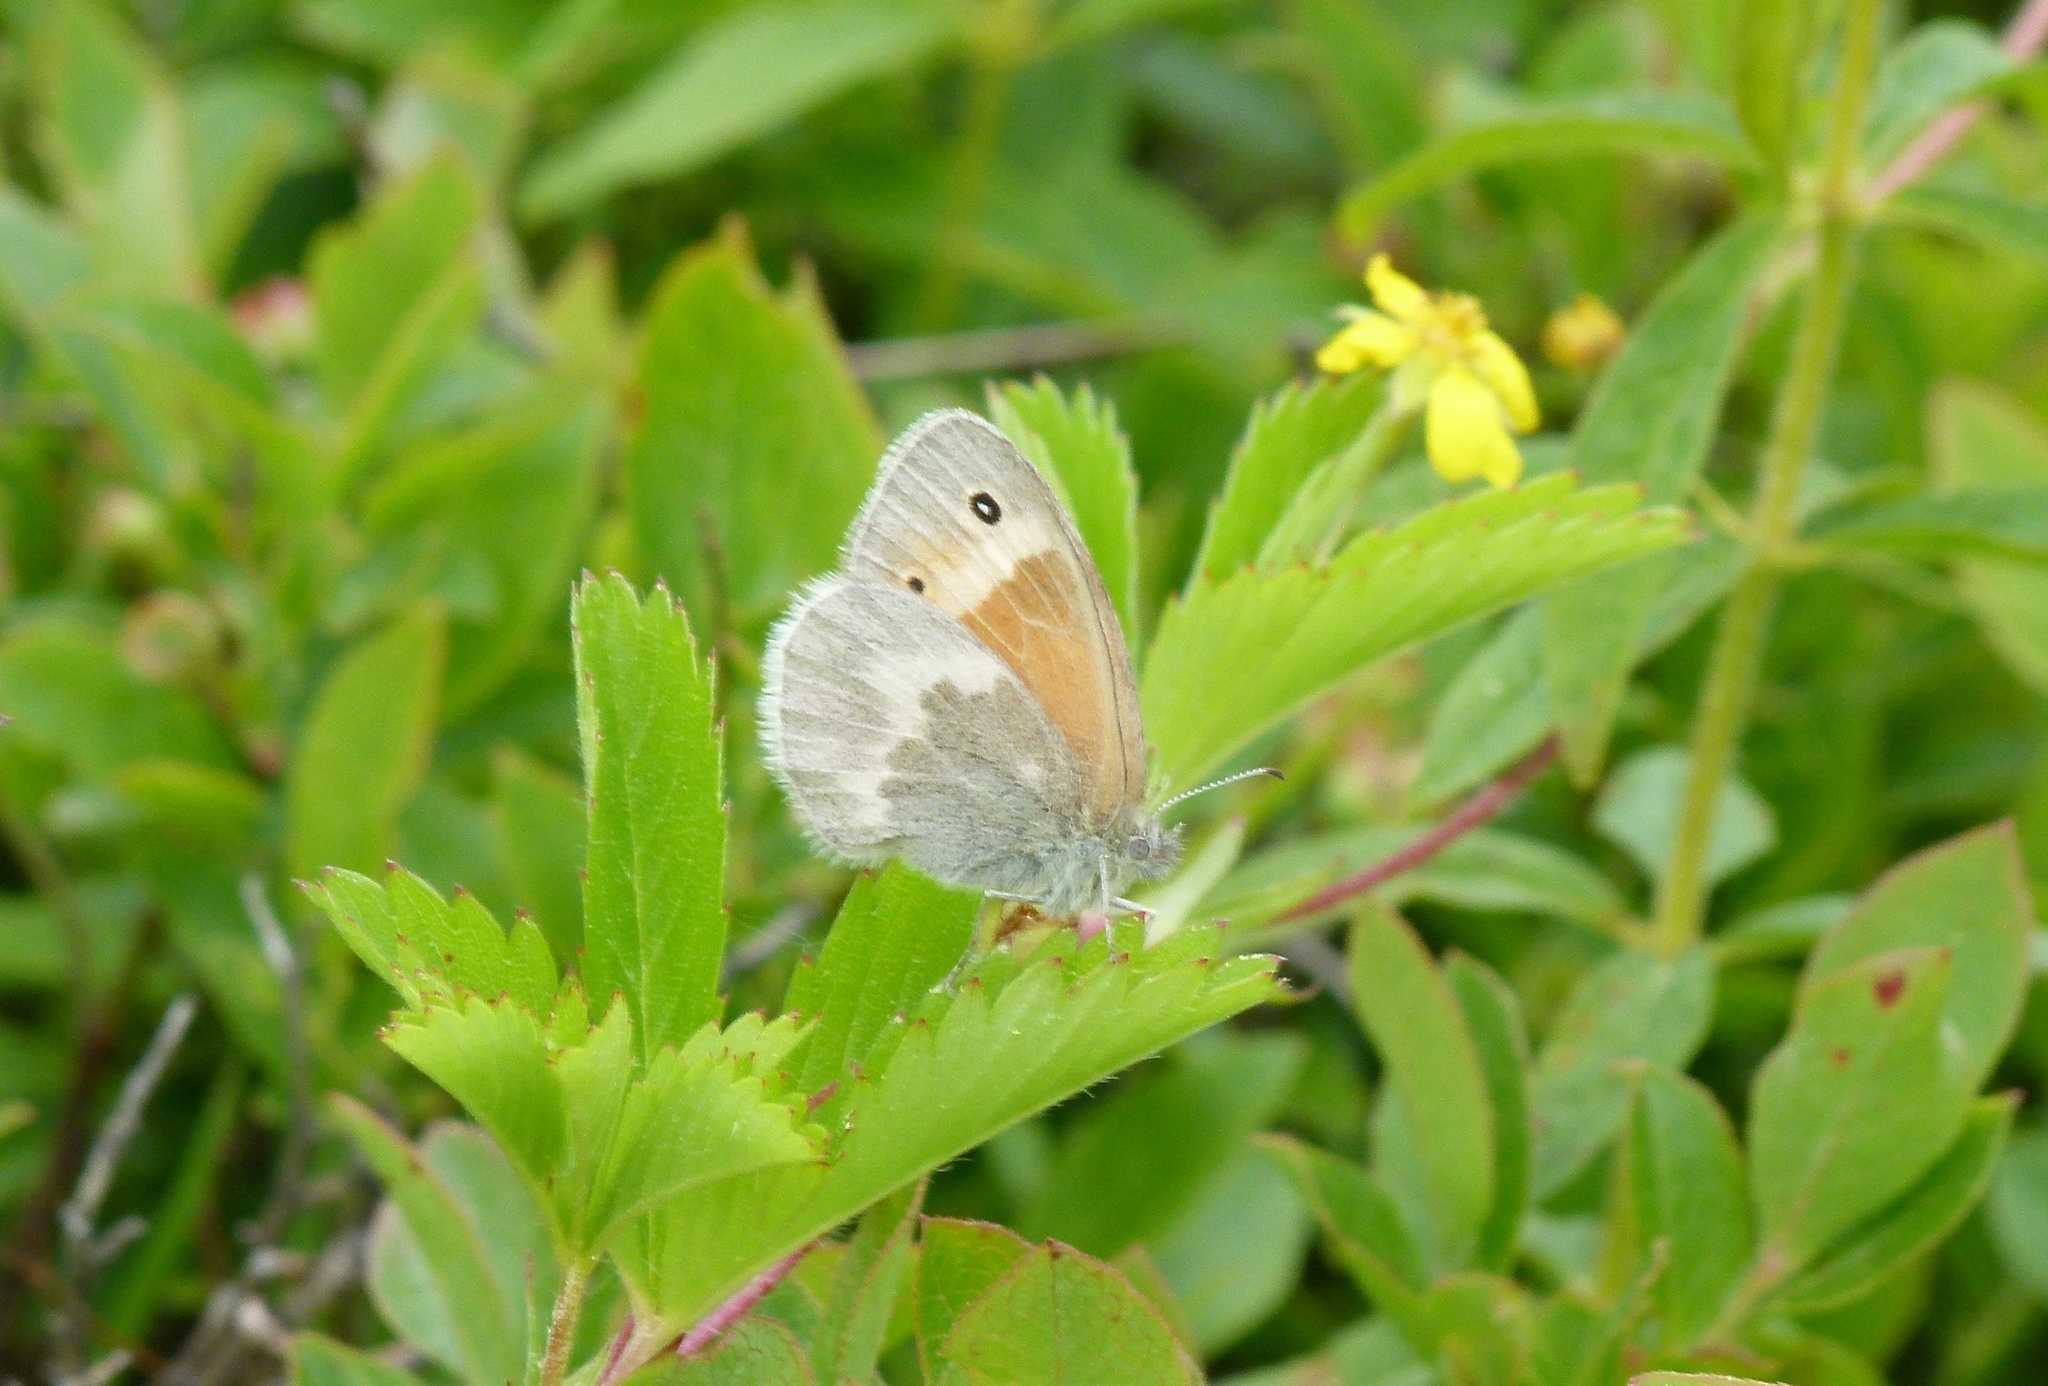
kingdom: Animalia
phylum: Arthropoda
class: Insecta
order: Lepidoptera
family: Nymphalidae
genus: Coenonympha
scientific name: Coenonympha california
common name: Common ringlet
